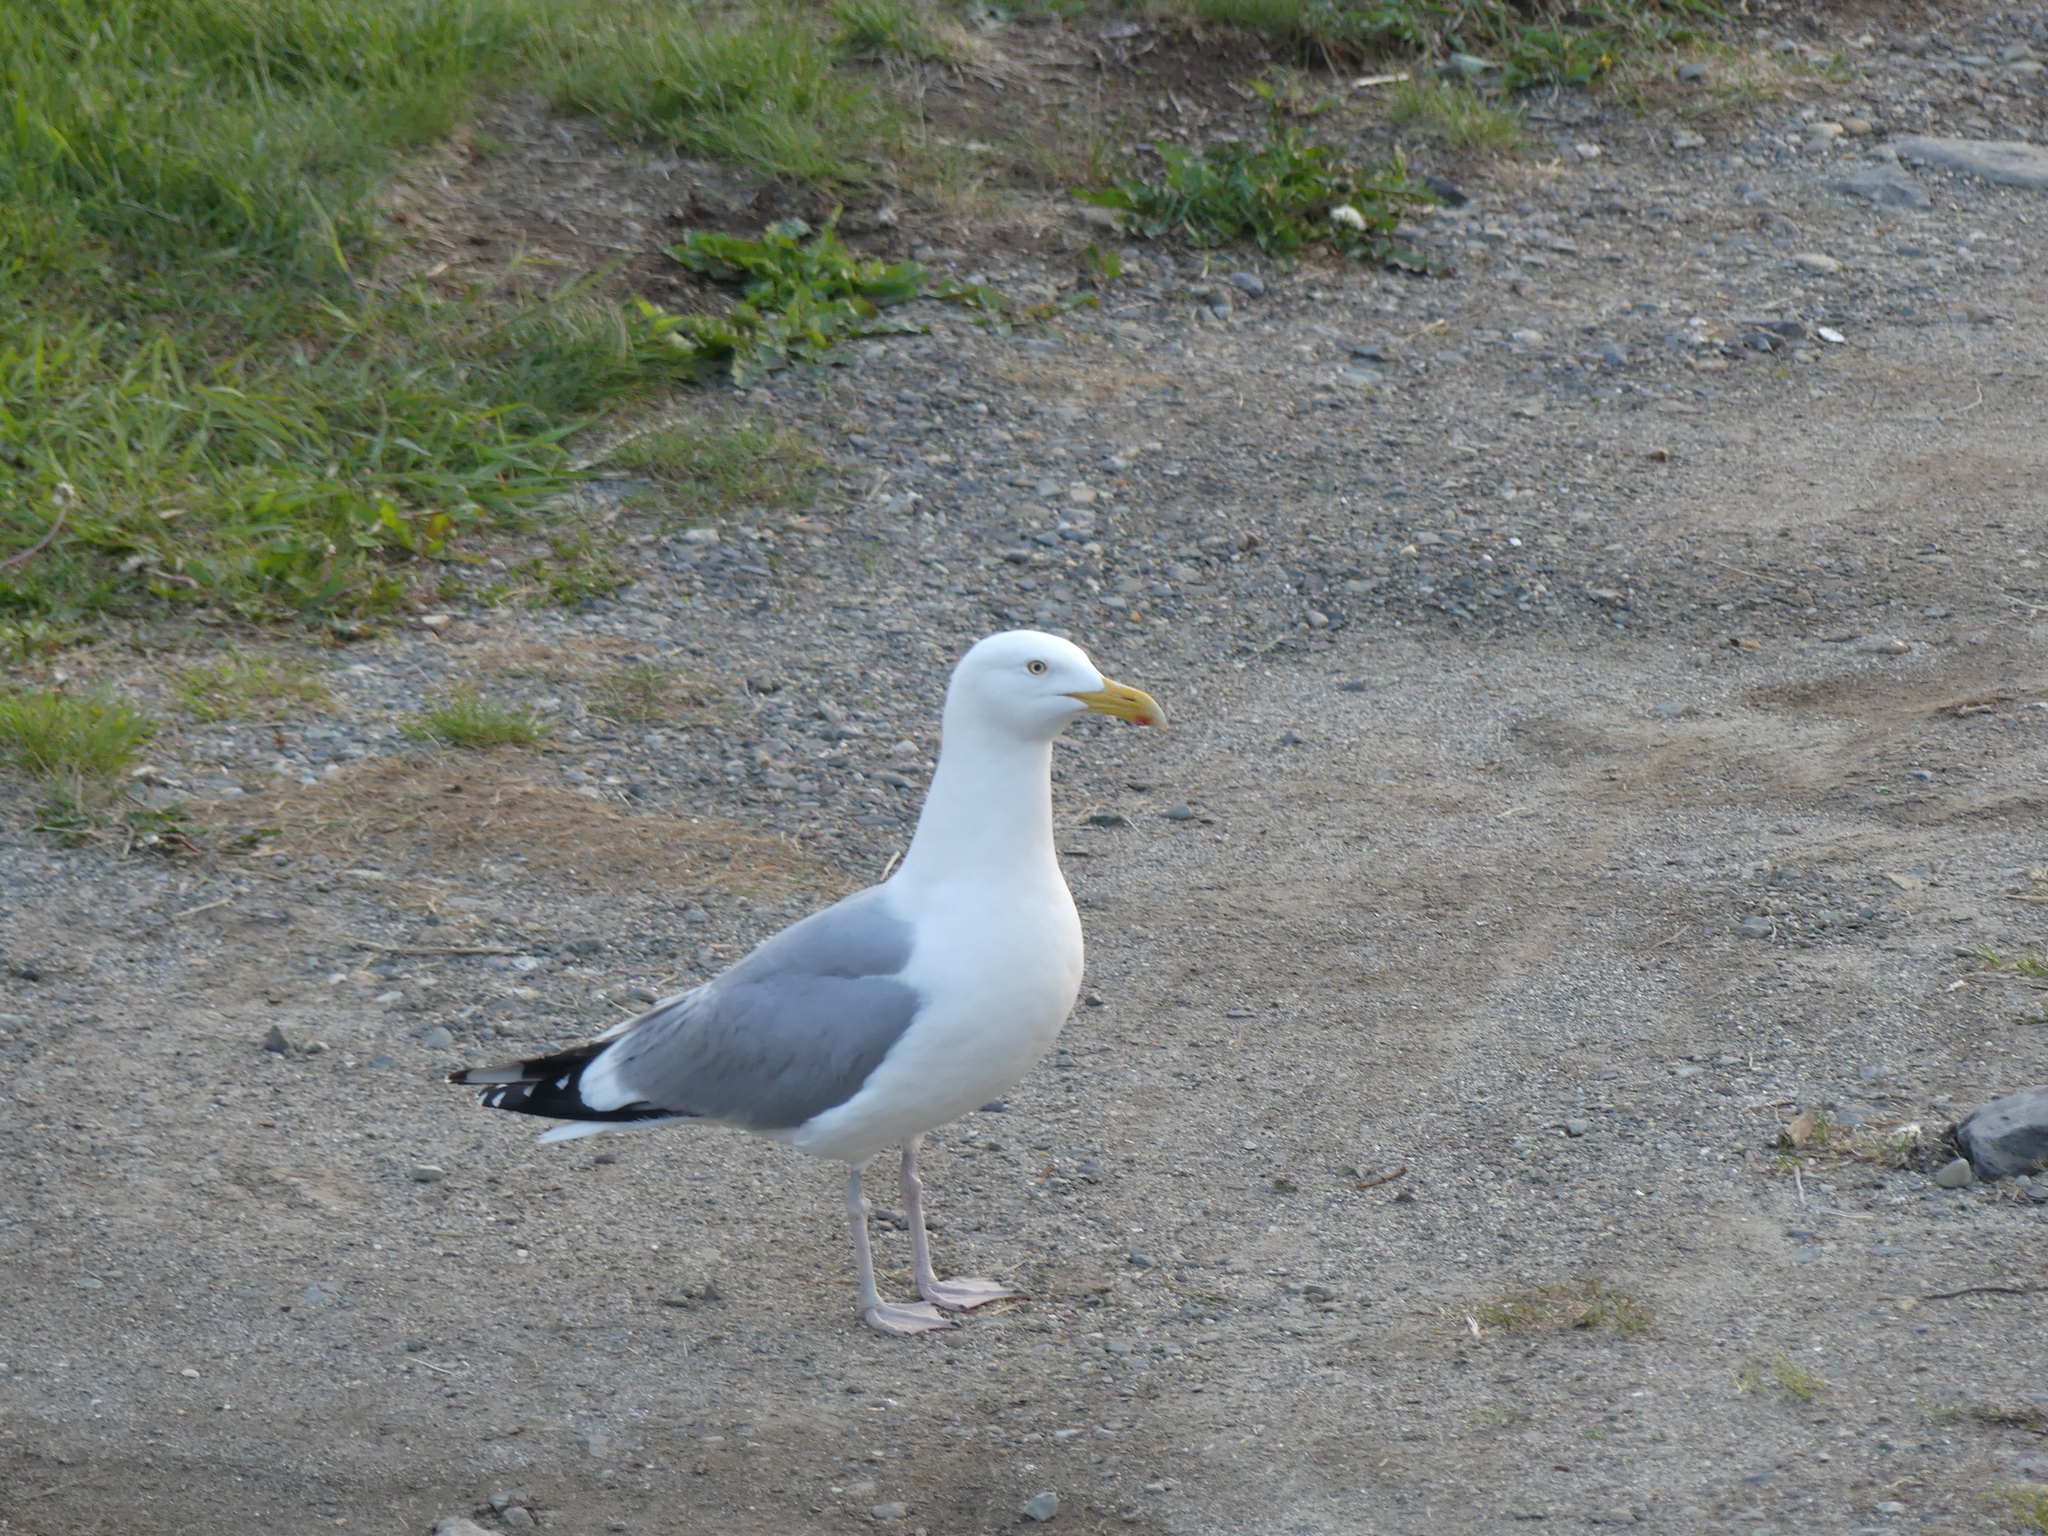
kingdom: Animalia
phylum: Chordata
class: Aves
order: Charadriiformes
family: Laridae
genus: Larus
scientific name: Larus argentatus
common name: Herring gull
